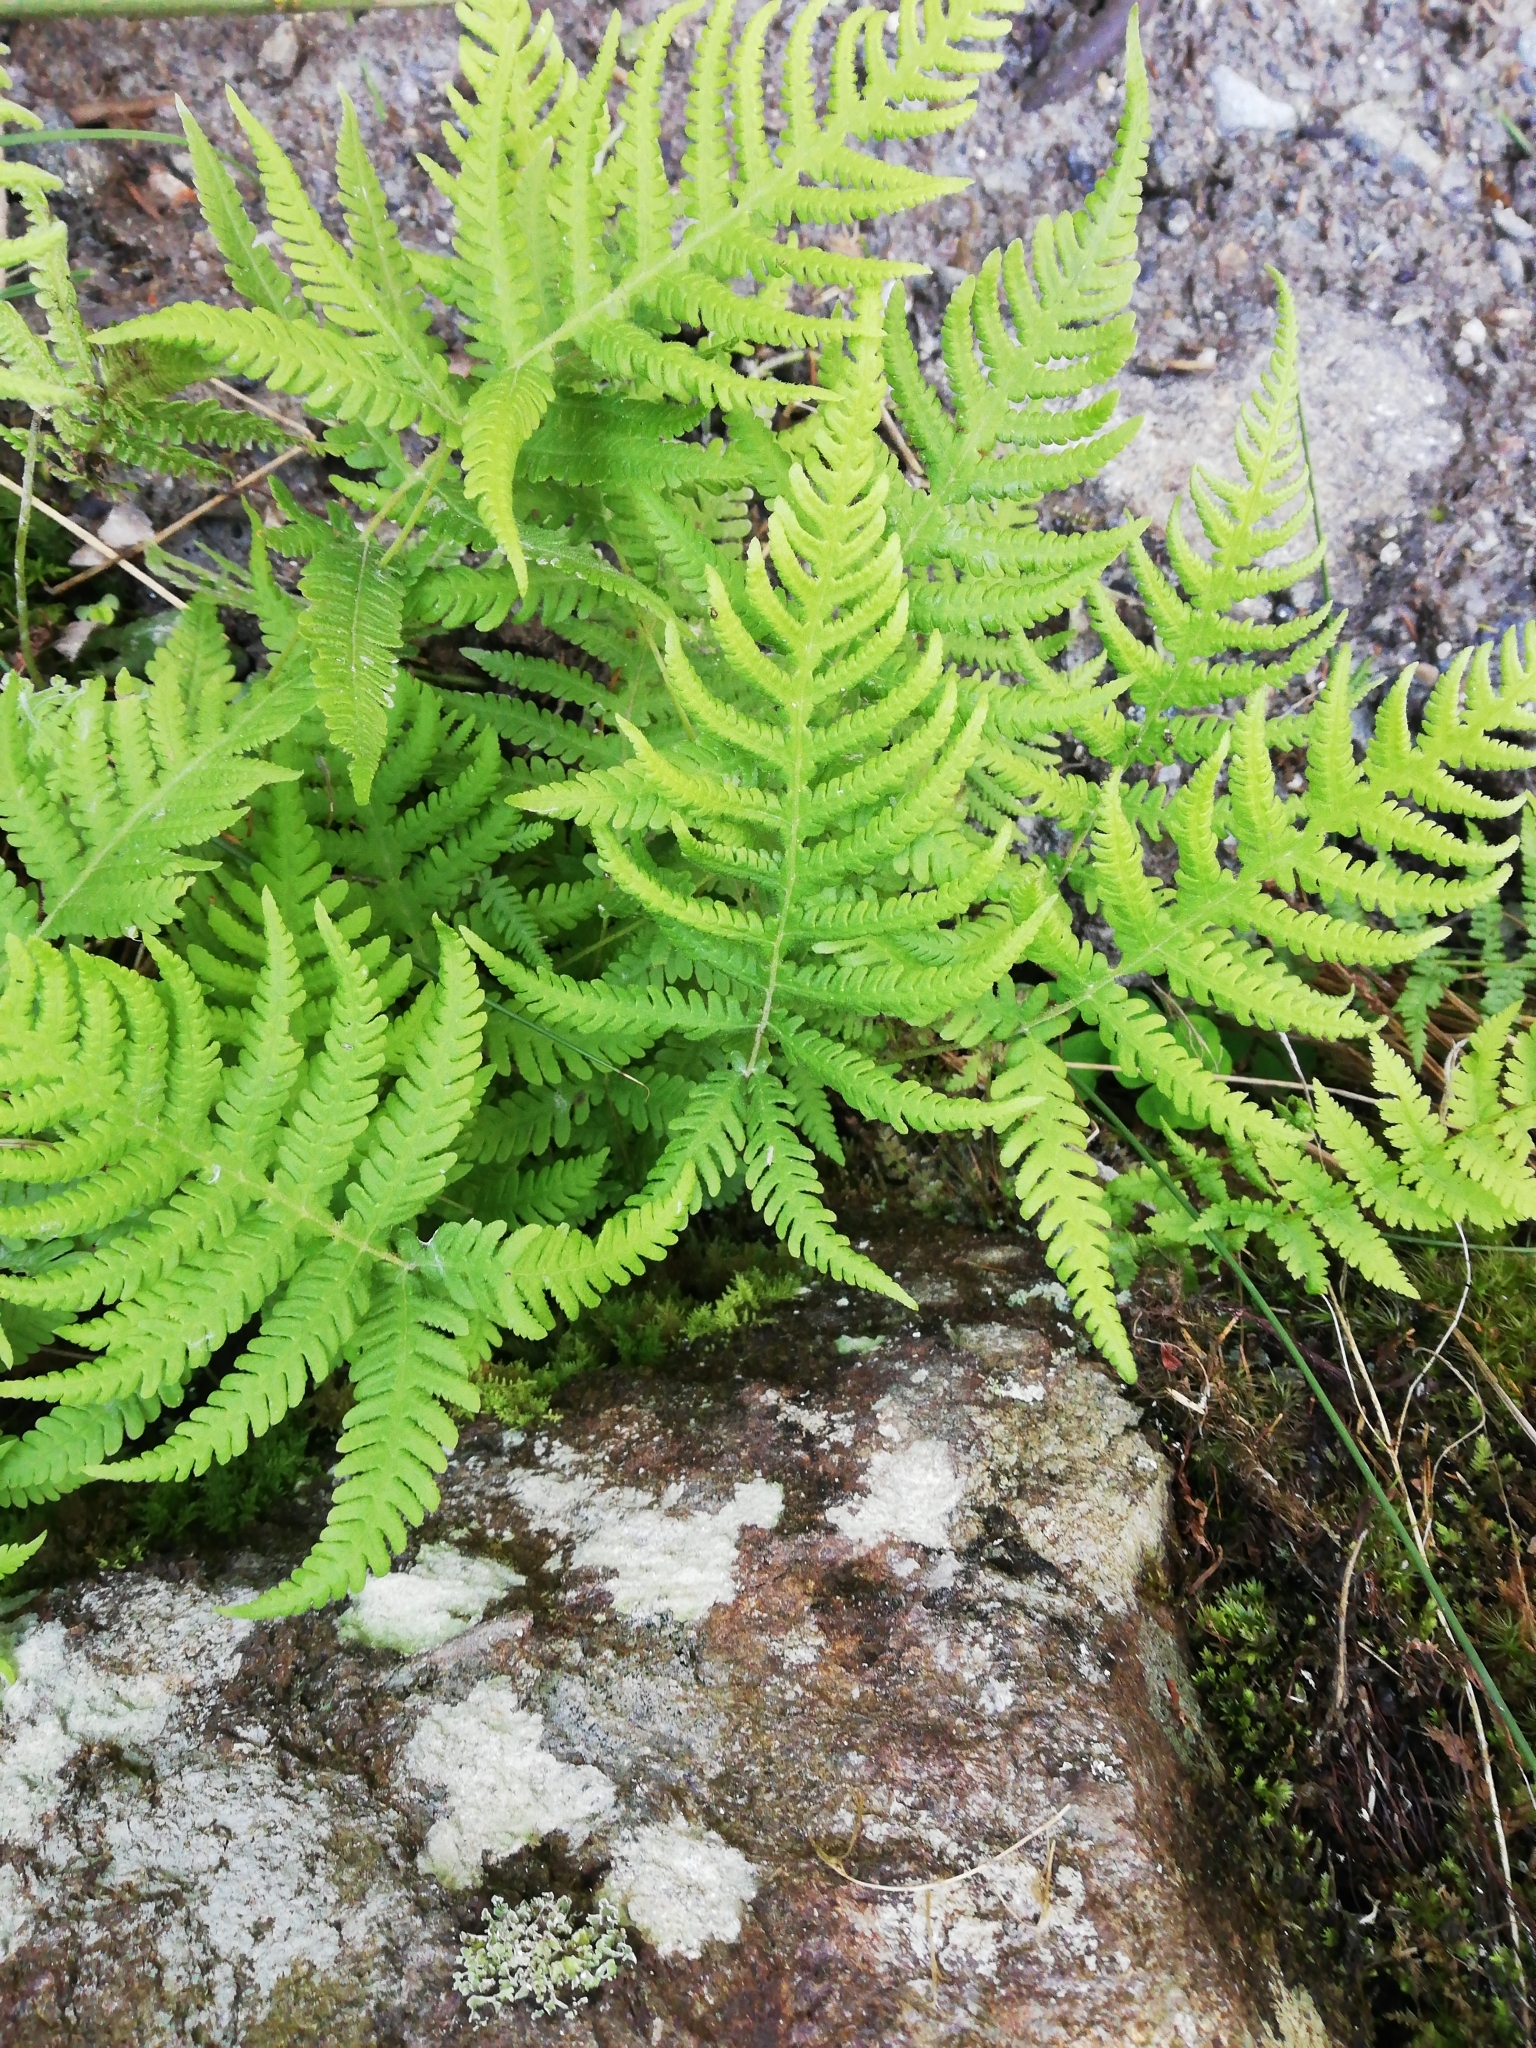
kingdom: Plantae
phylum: Tracheophyta
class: Polypodiopsida
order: Polypodiales
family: Thelypteridaceae
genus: Phegopteris
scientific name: Phegopteris connectilis
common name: Beech fern
